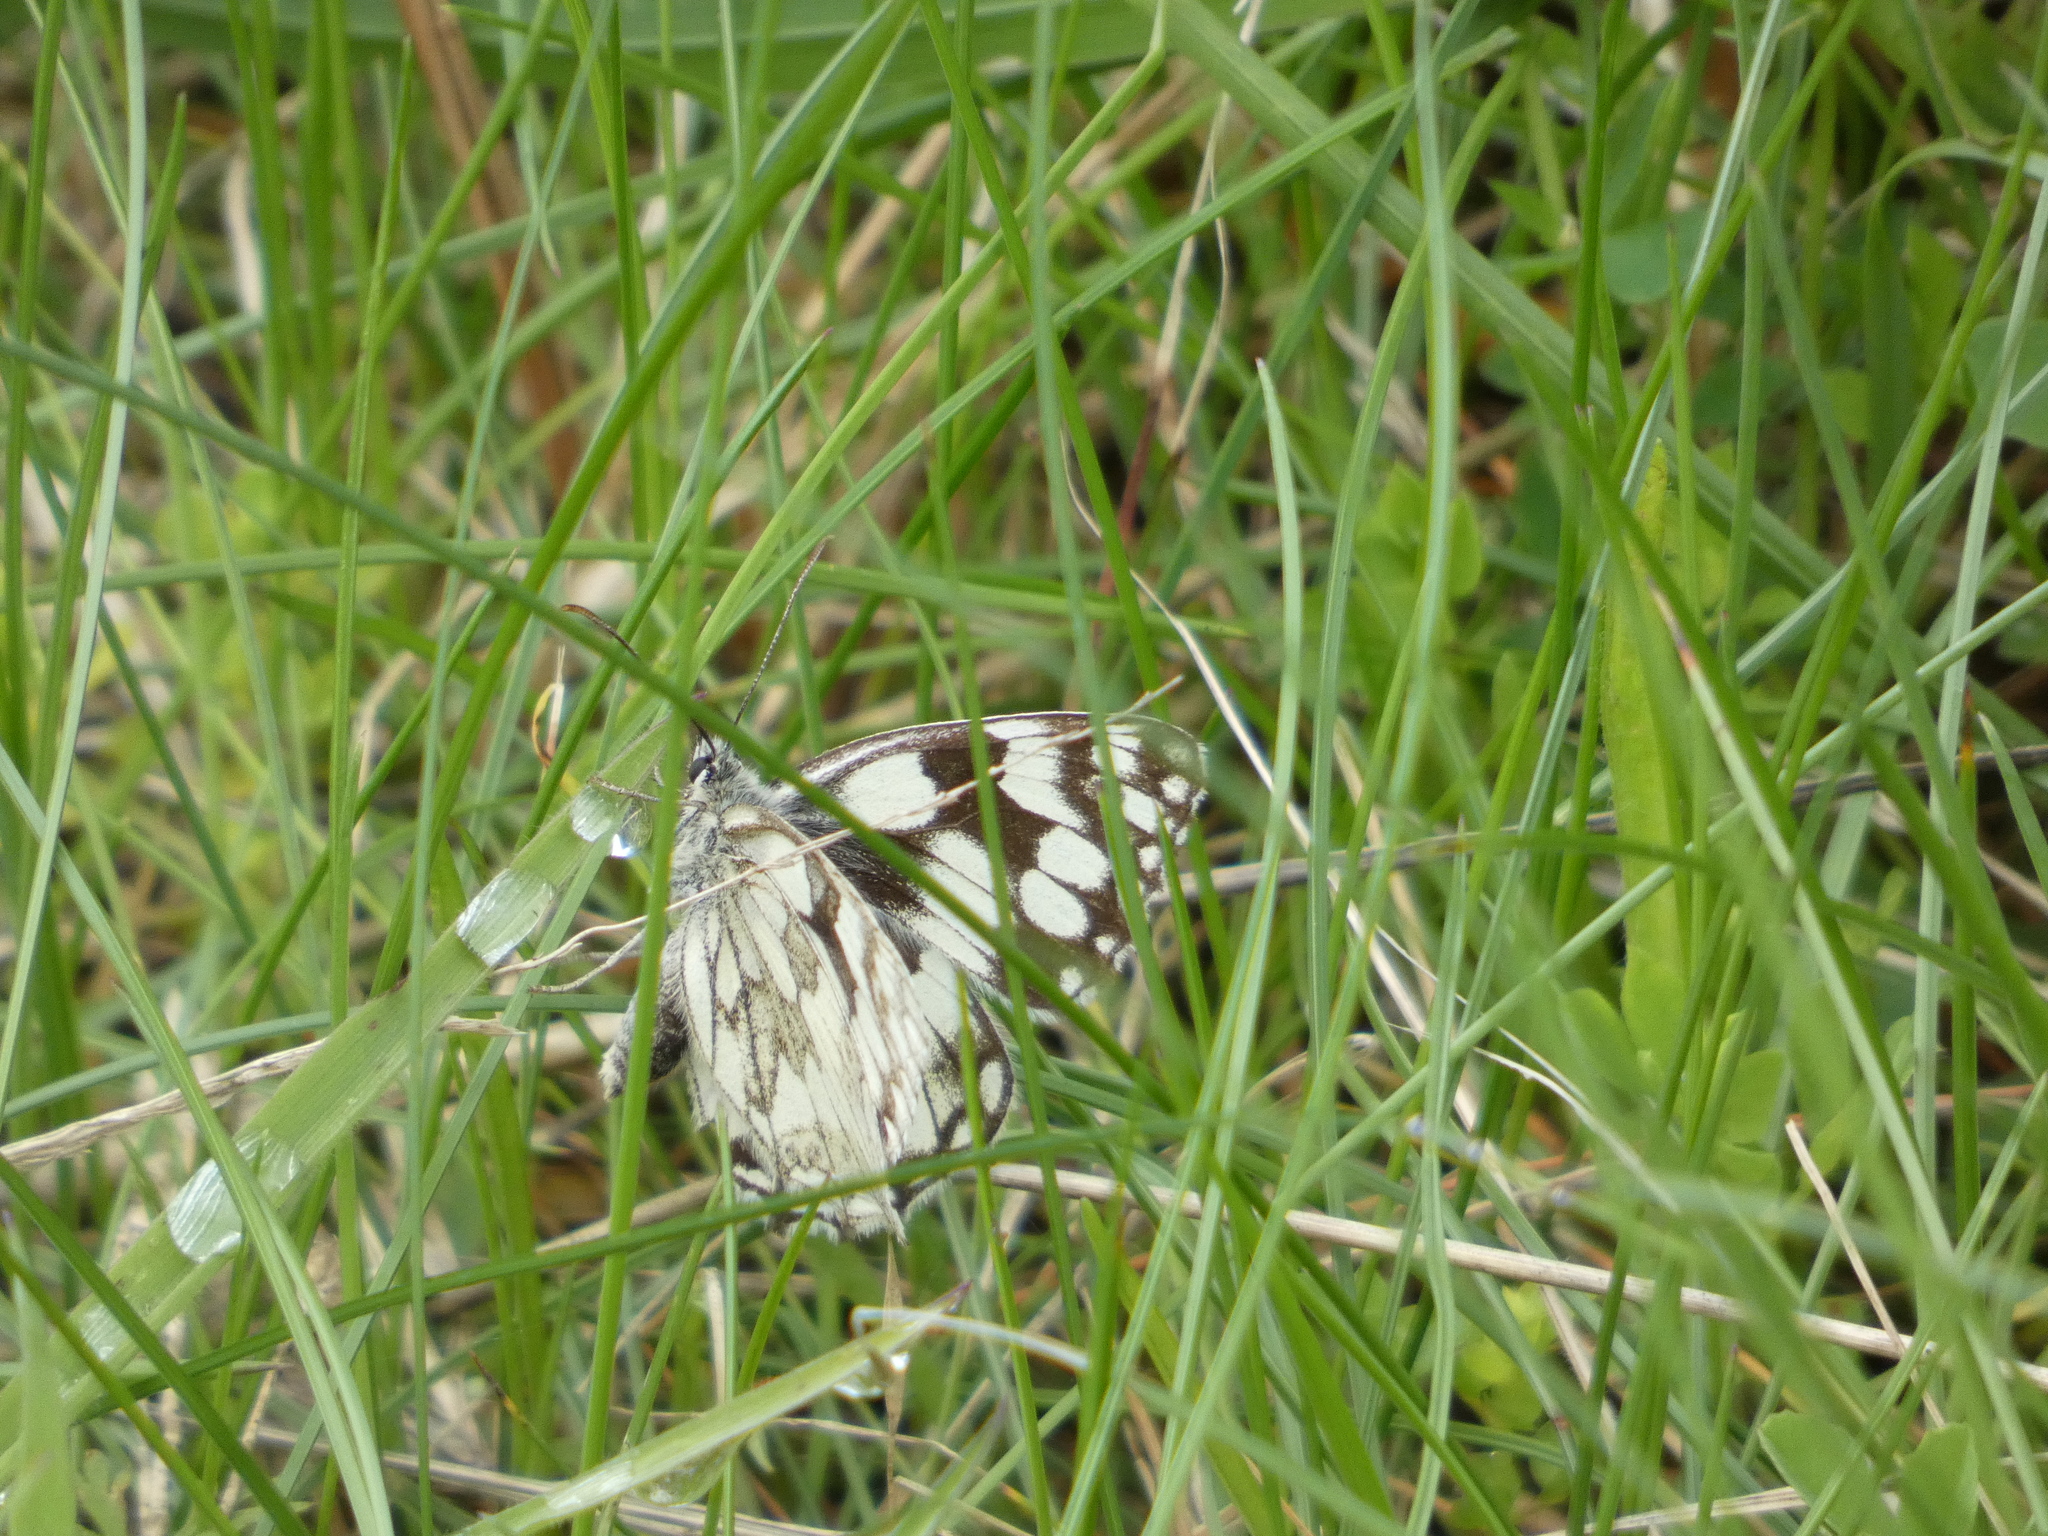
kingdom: Animalia
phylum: Arthropoda
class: Insecta
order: Lepidoptera
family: Nymphalidae
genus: Melanargia
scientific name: Melanargia galathea
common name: Marbled white
